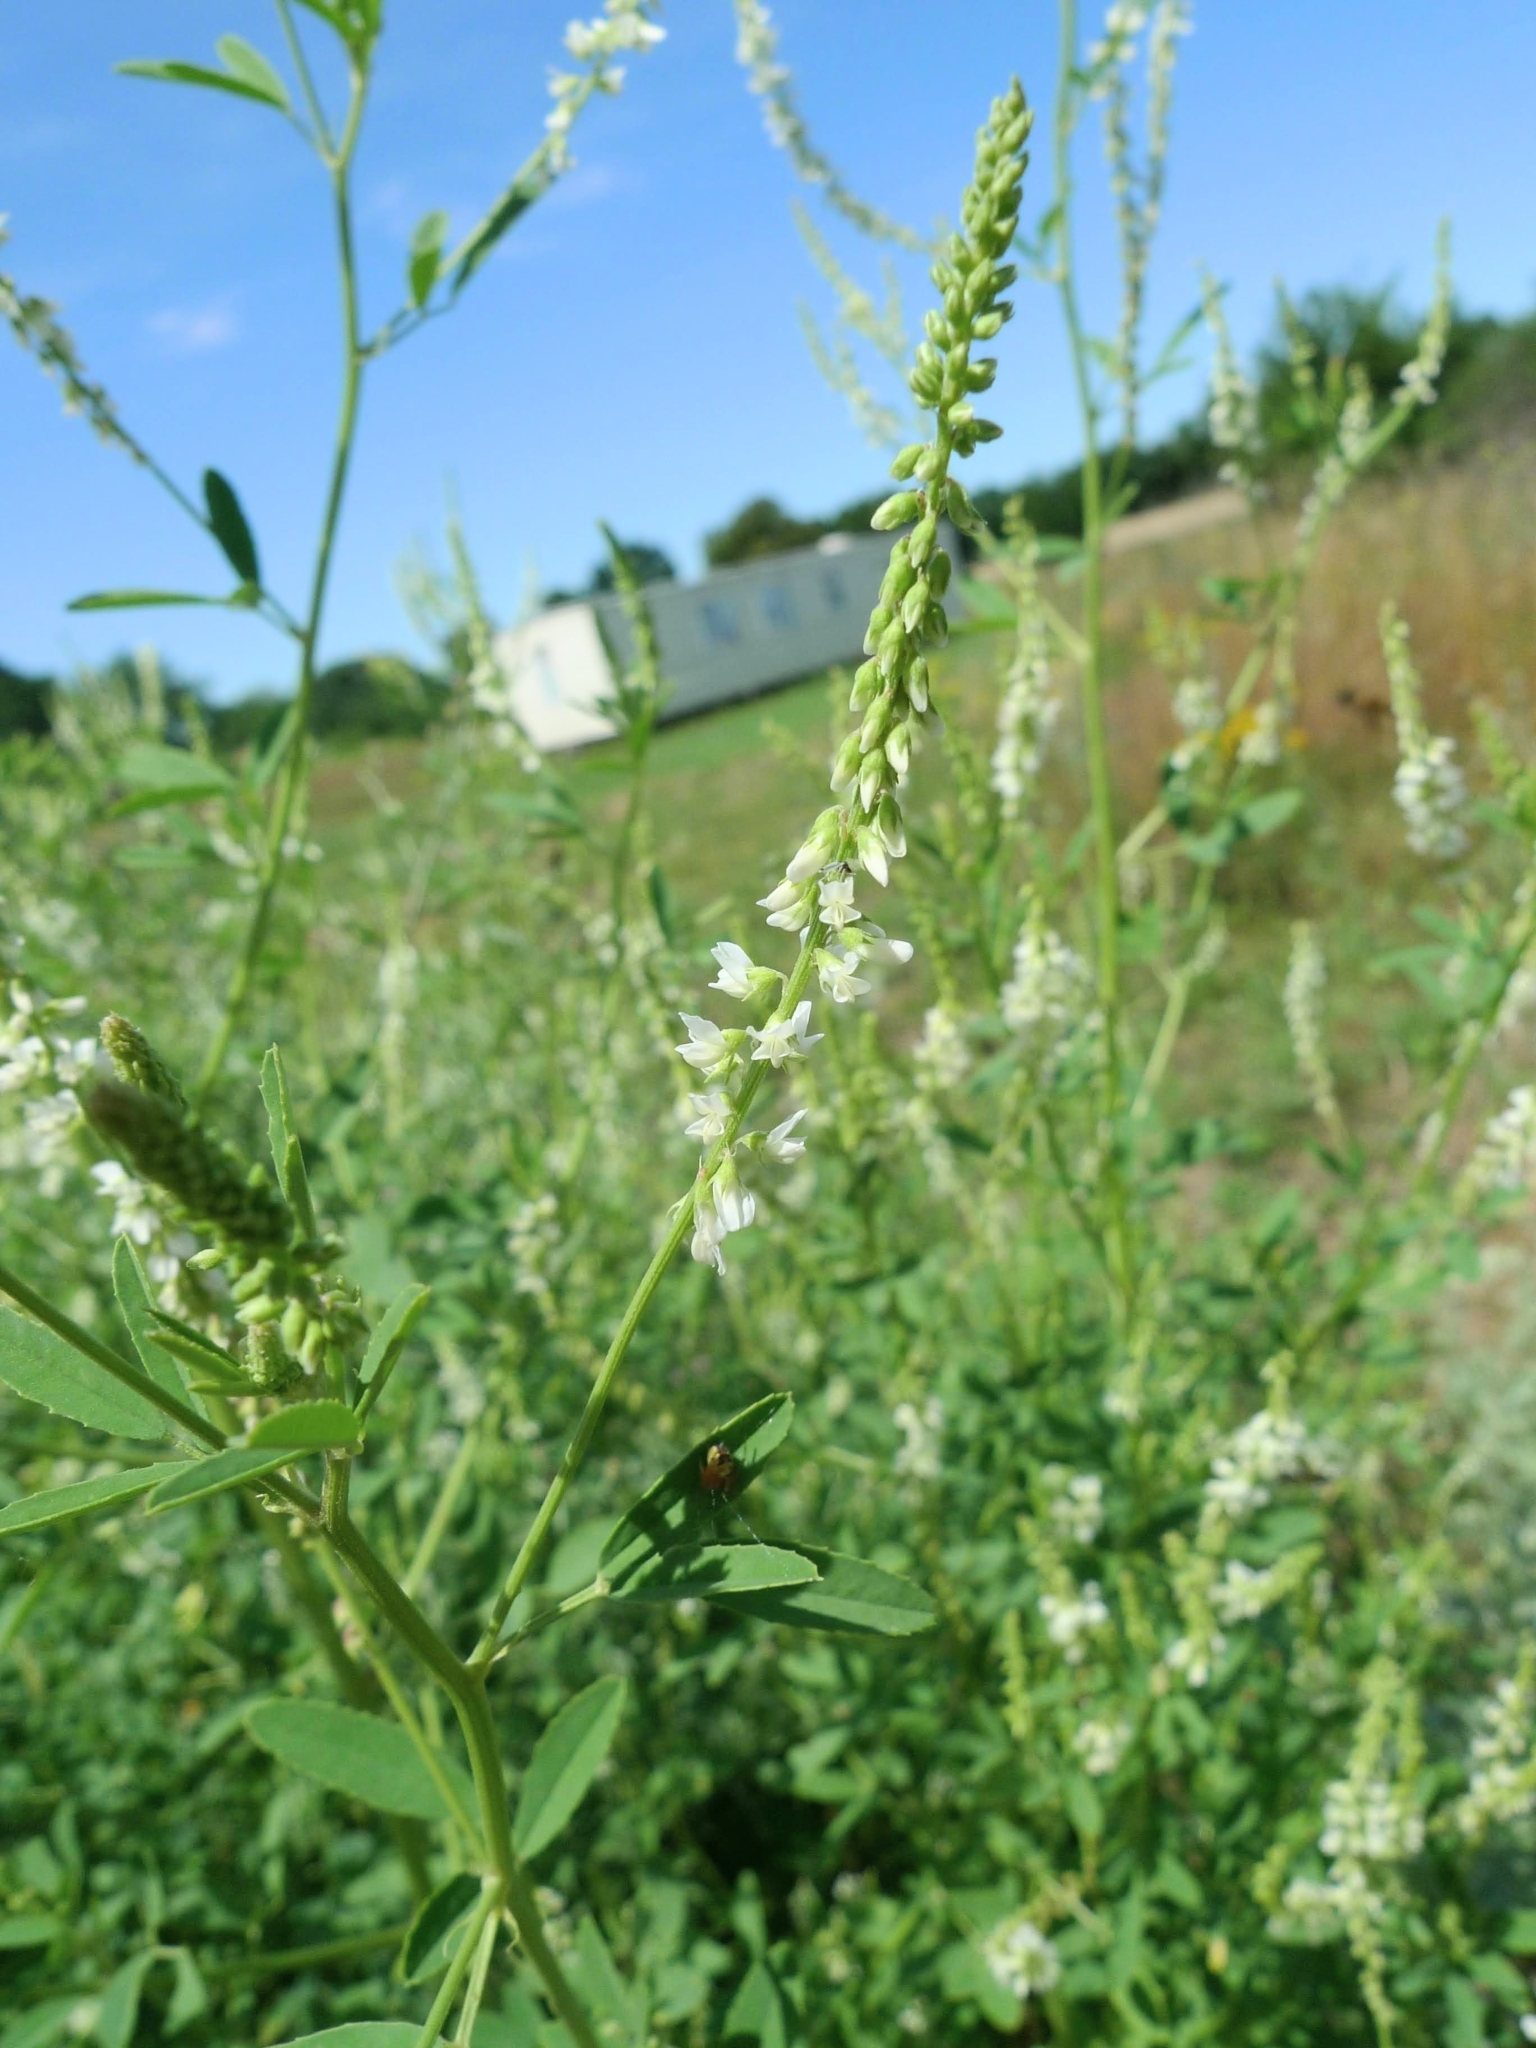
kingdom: Plantae
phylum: Tracheophyta
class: Magnoliopsida
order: Fabales
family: Fabaceae
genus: Melilotus
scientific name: Melilotus albus
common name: White melilot
